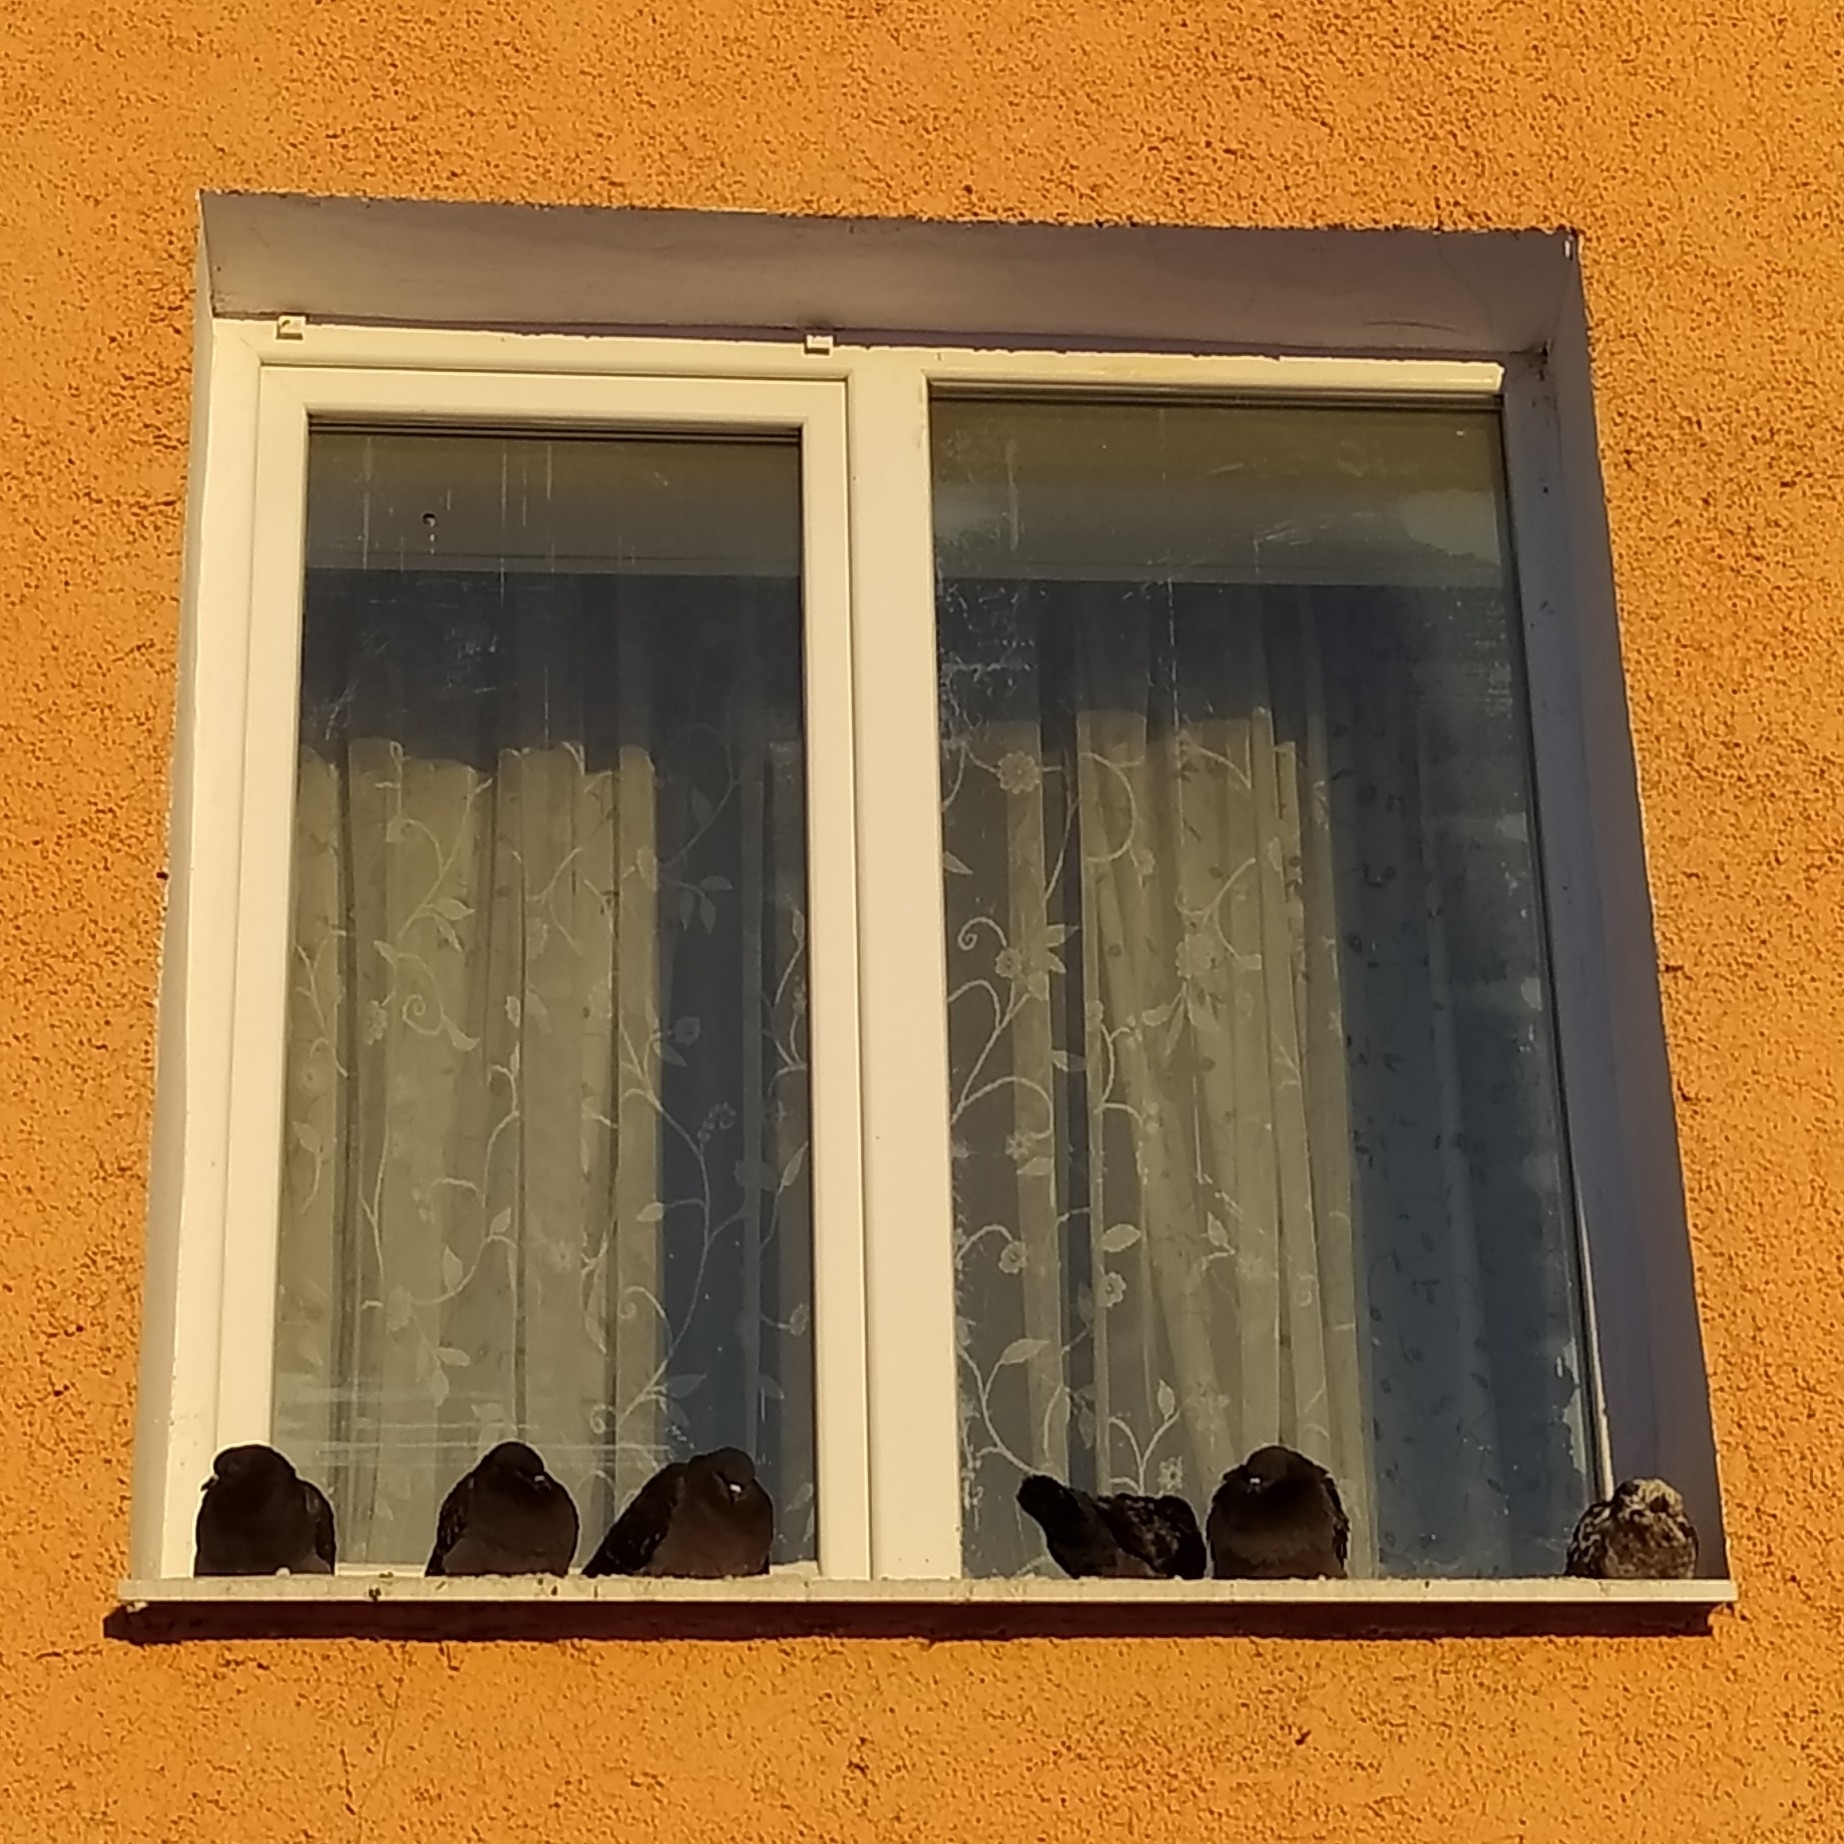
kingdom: Animalia
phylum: Chordata
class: Aves
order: Columbiformes
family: Columbidae
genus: Columba
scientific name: Columba livia
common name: Rock pigeon
